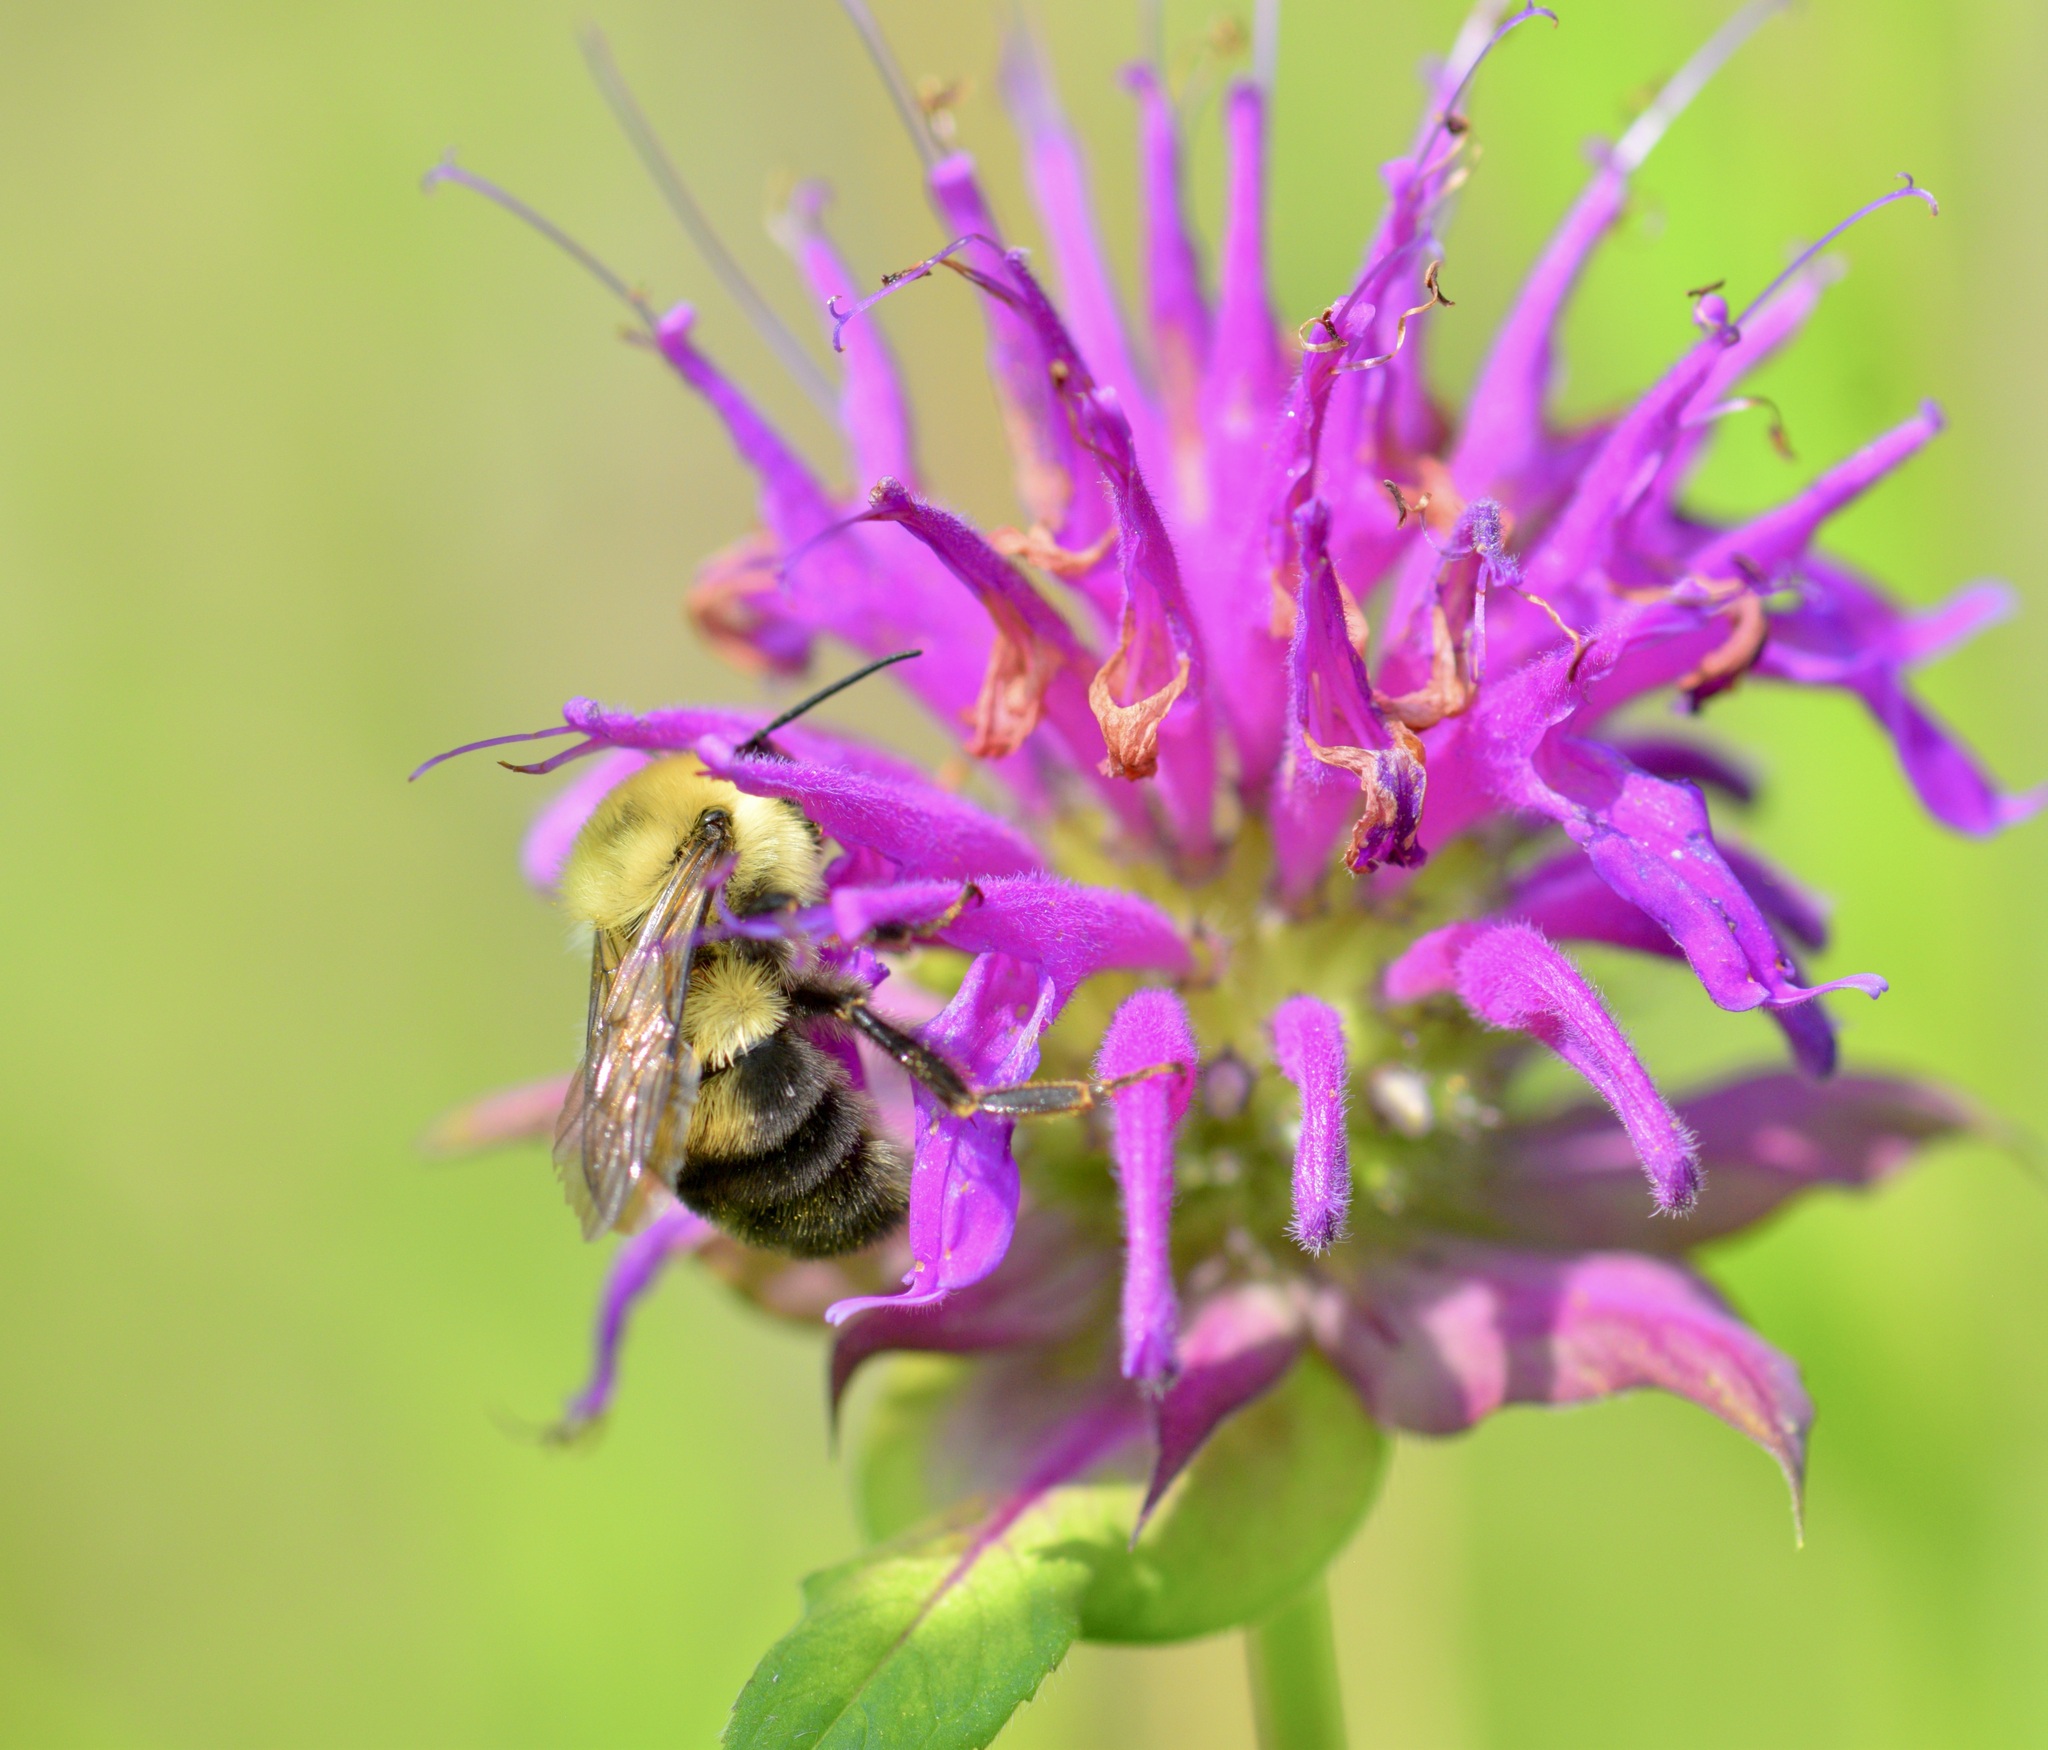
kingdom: Animalia
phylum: Arthropoda
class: Insecta
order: Hymenoptera
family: Apidae
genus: Bombus
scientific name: Bombus bimaculatus
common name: Two-spotted bumble bee
